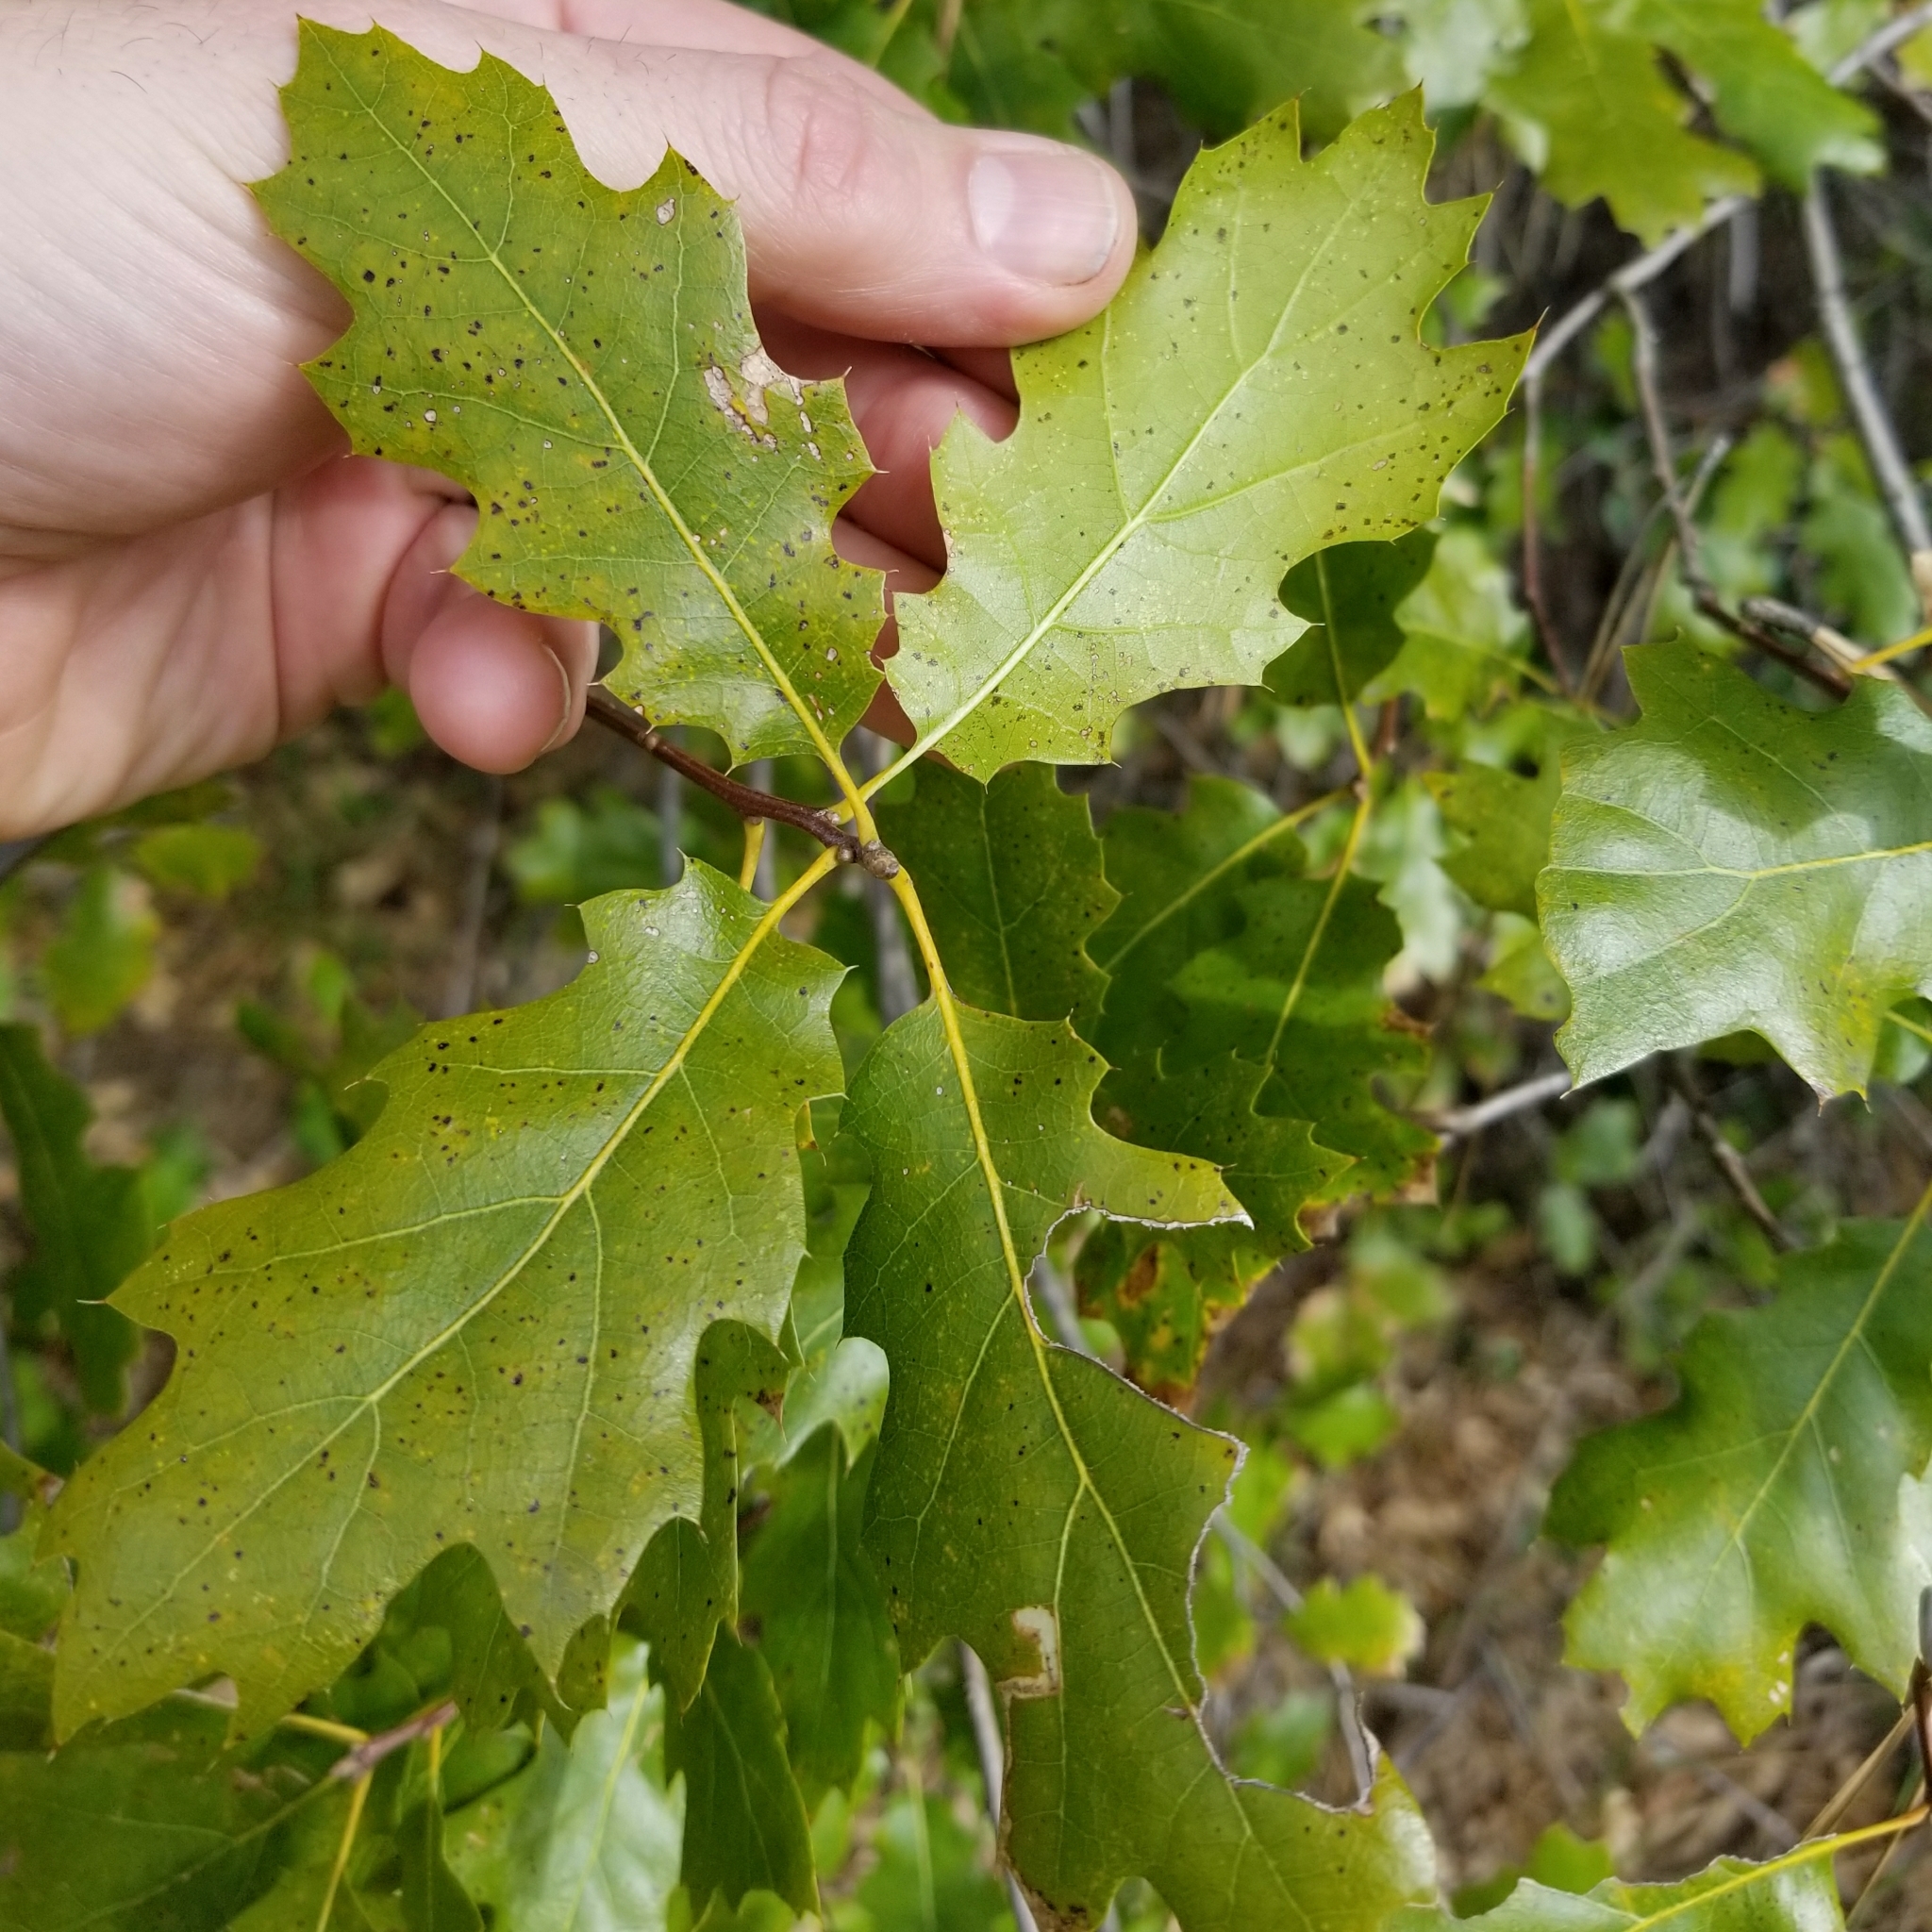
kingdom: Plantae
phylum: Tracheophyta
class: Magnoliopsida
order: Fagales
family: Fagaceae
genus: Quercus
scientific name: Quercus kelloggii
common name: California black oak
